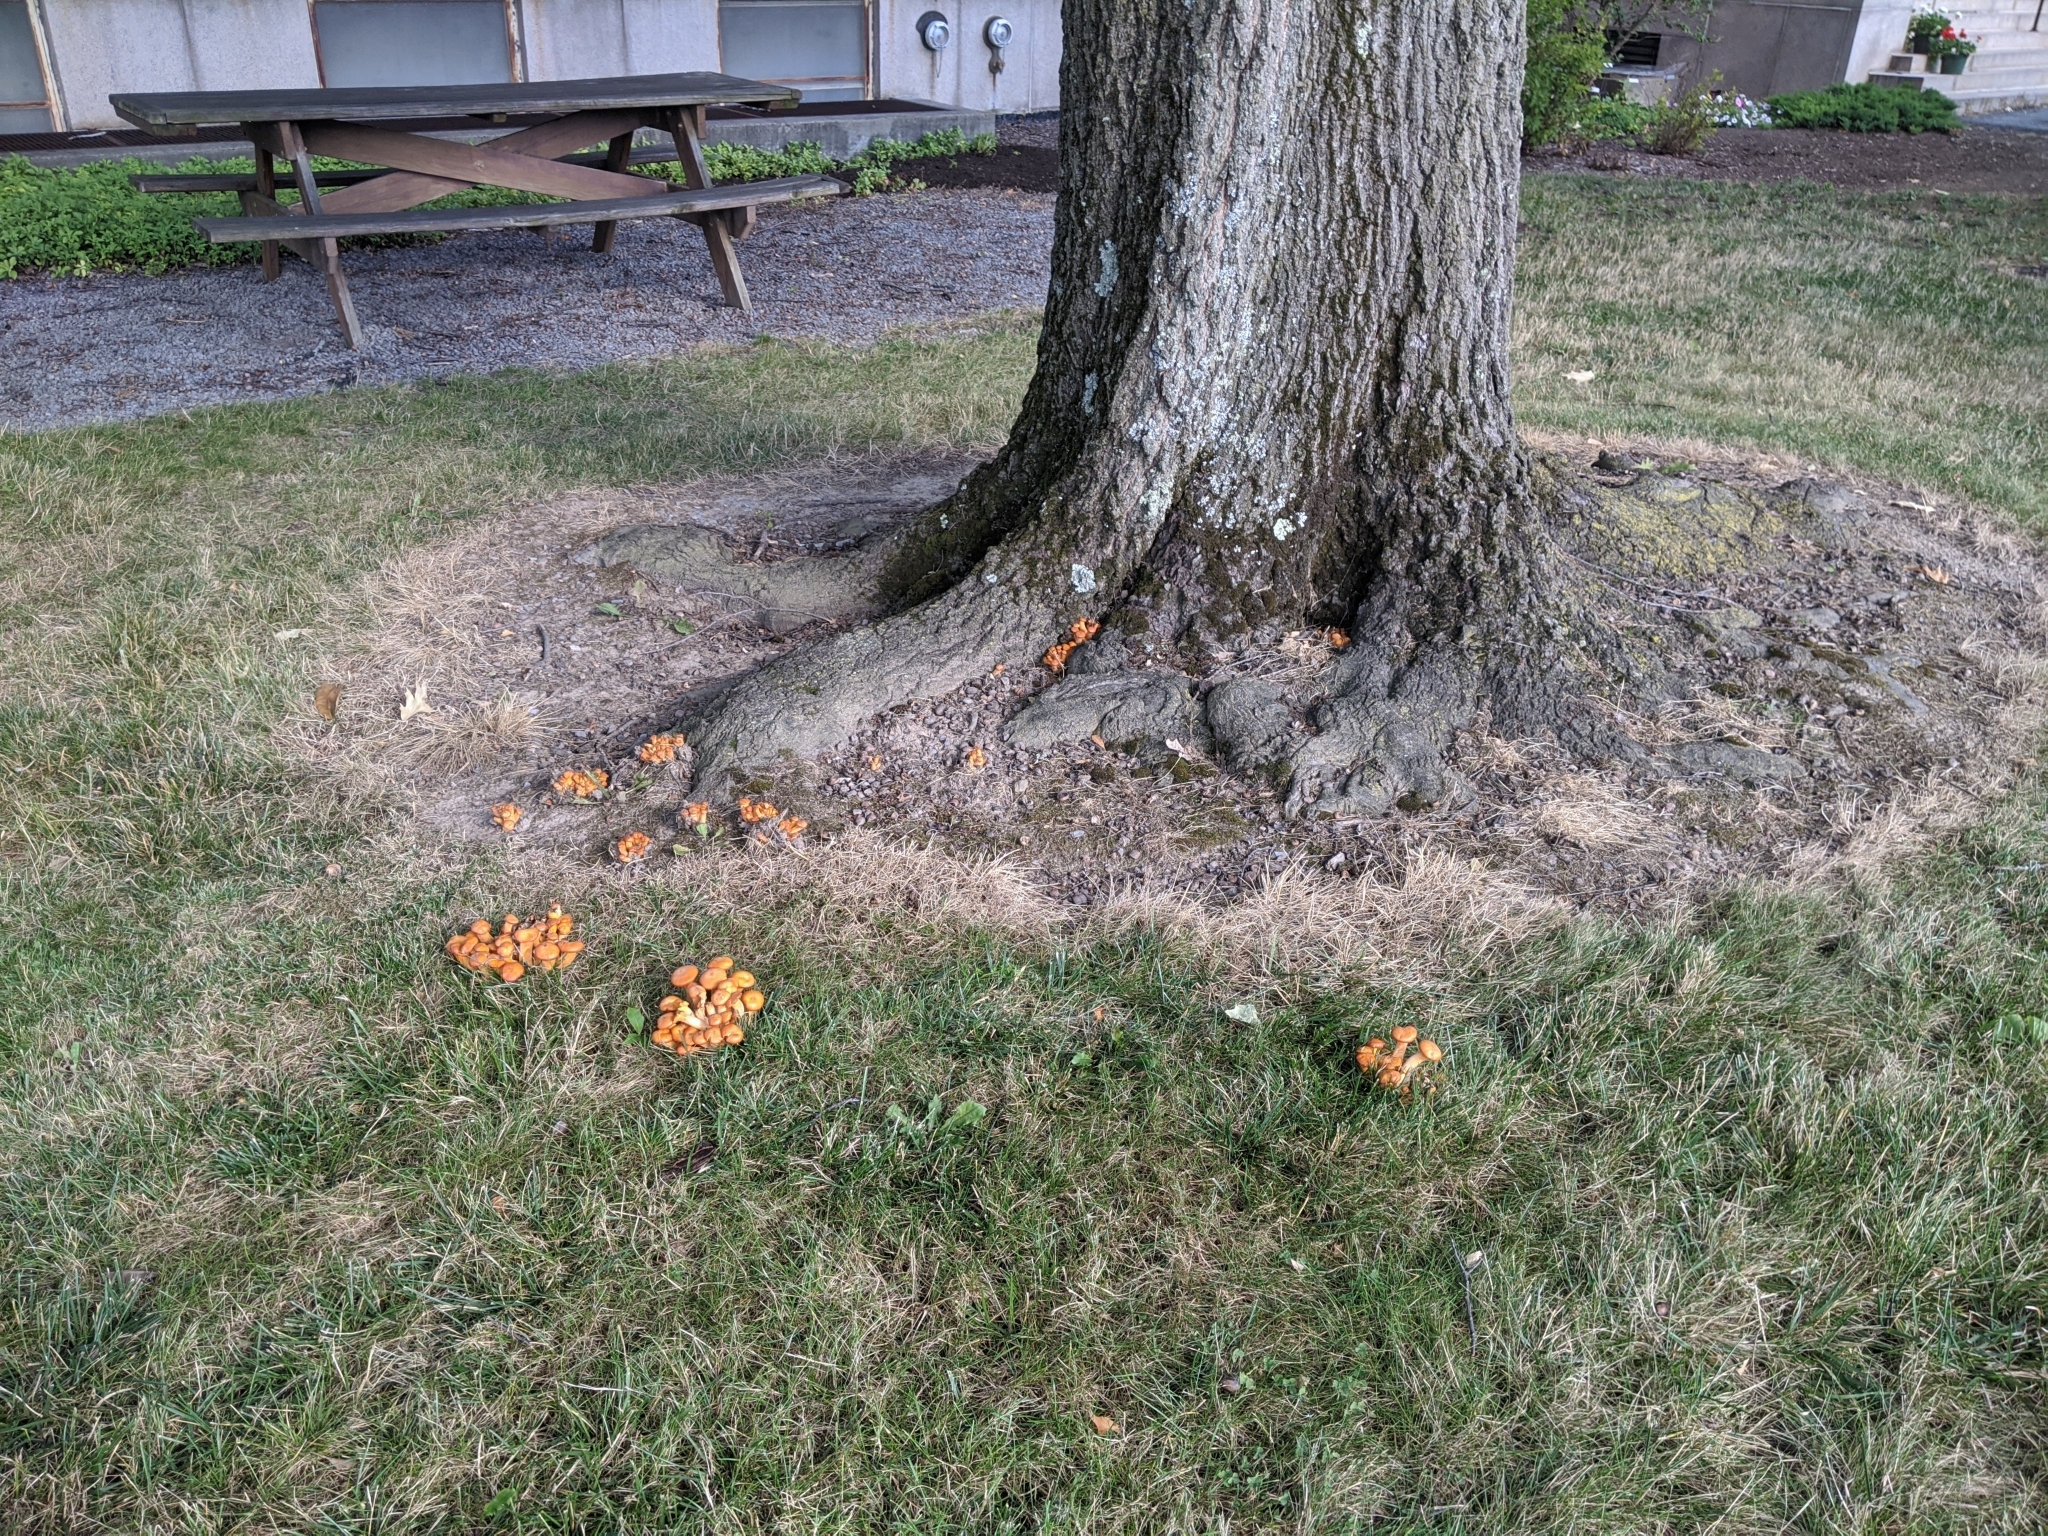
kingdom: Fungi
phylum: Basidiomycota
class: Agaricomycetes
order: Agaricales
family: Omphalotaceae
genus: Omphalotus
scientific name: Omphalotus illudens
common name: Jack o lantern
